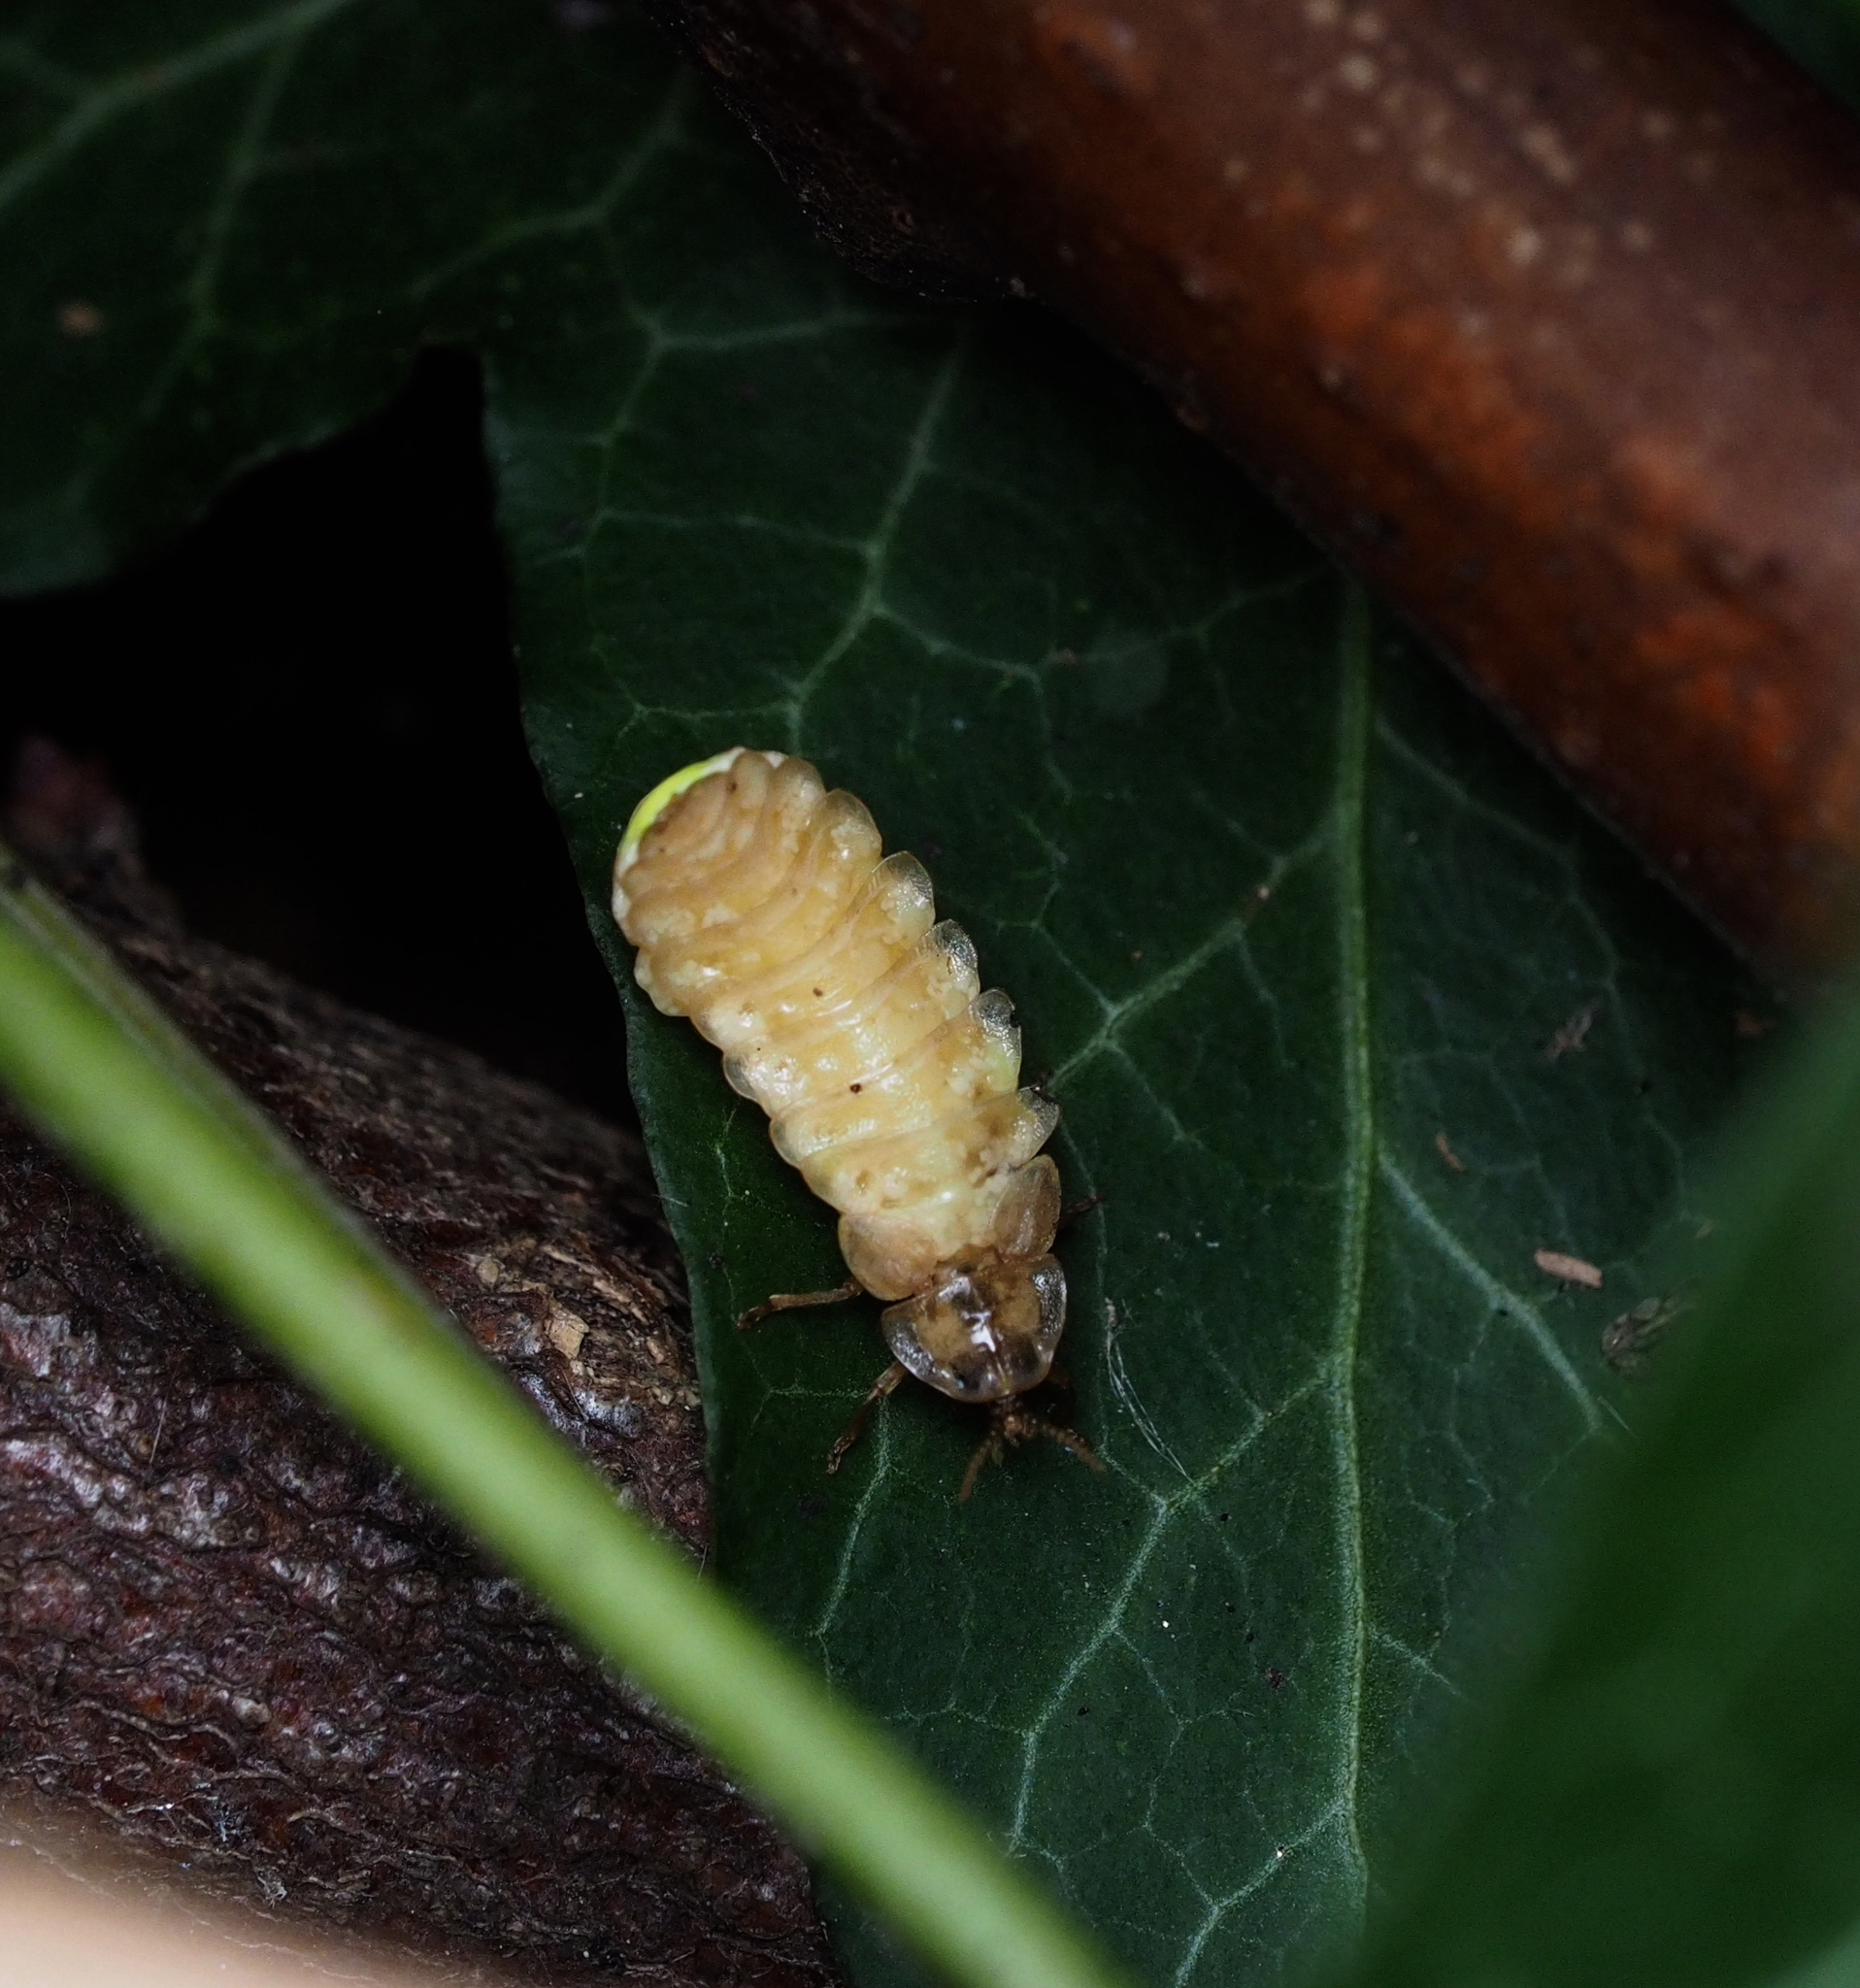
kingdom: Animalia
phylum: Arthropoda
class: Insecta
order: Coleoptera
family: Lampyridae
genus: Lamprohiza
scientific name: Lamprohiza splendidula
